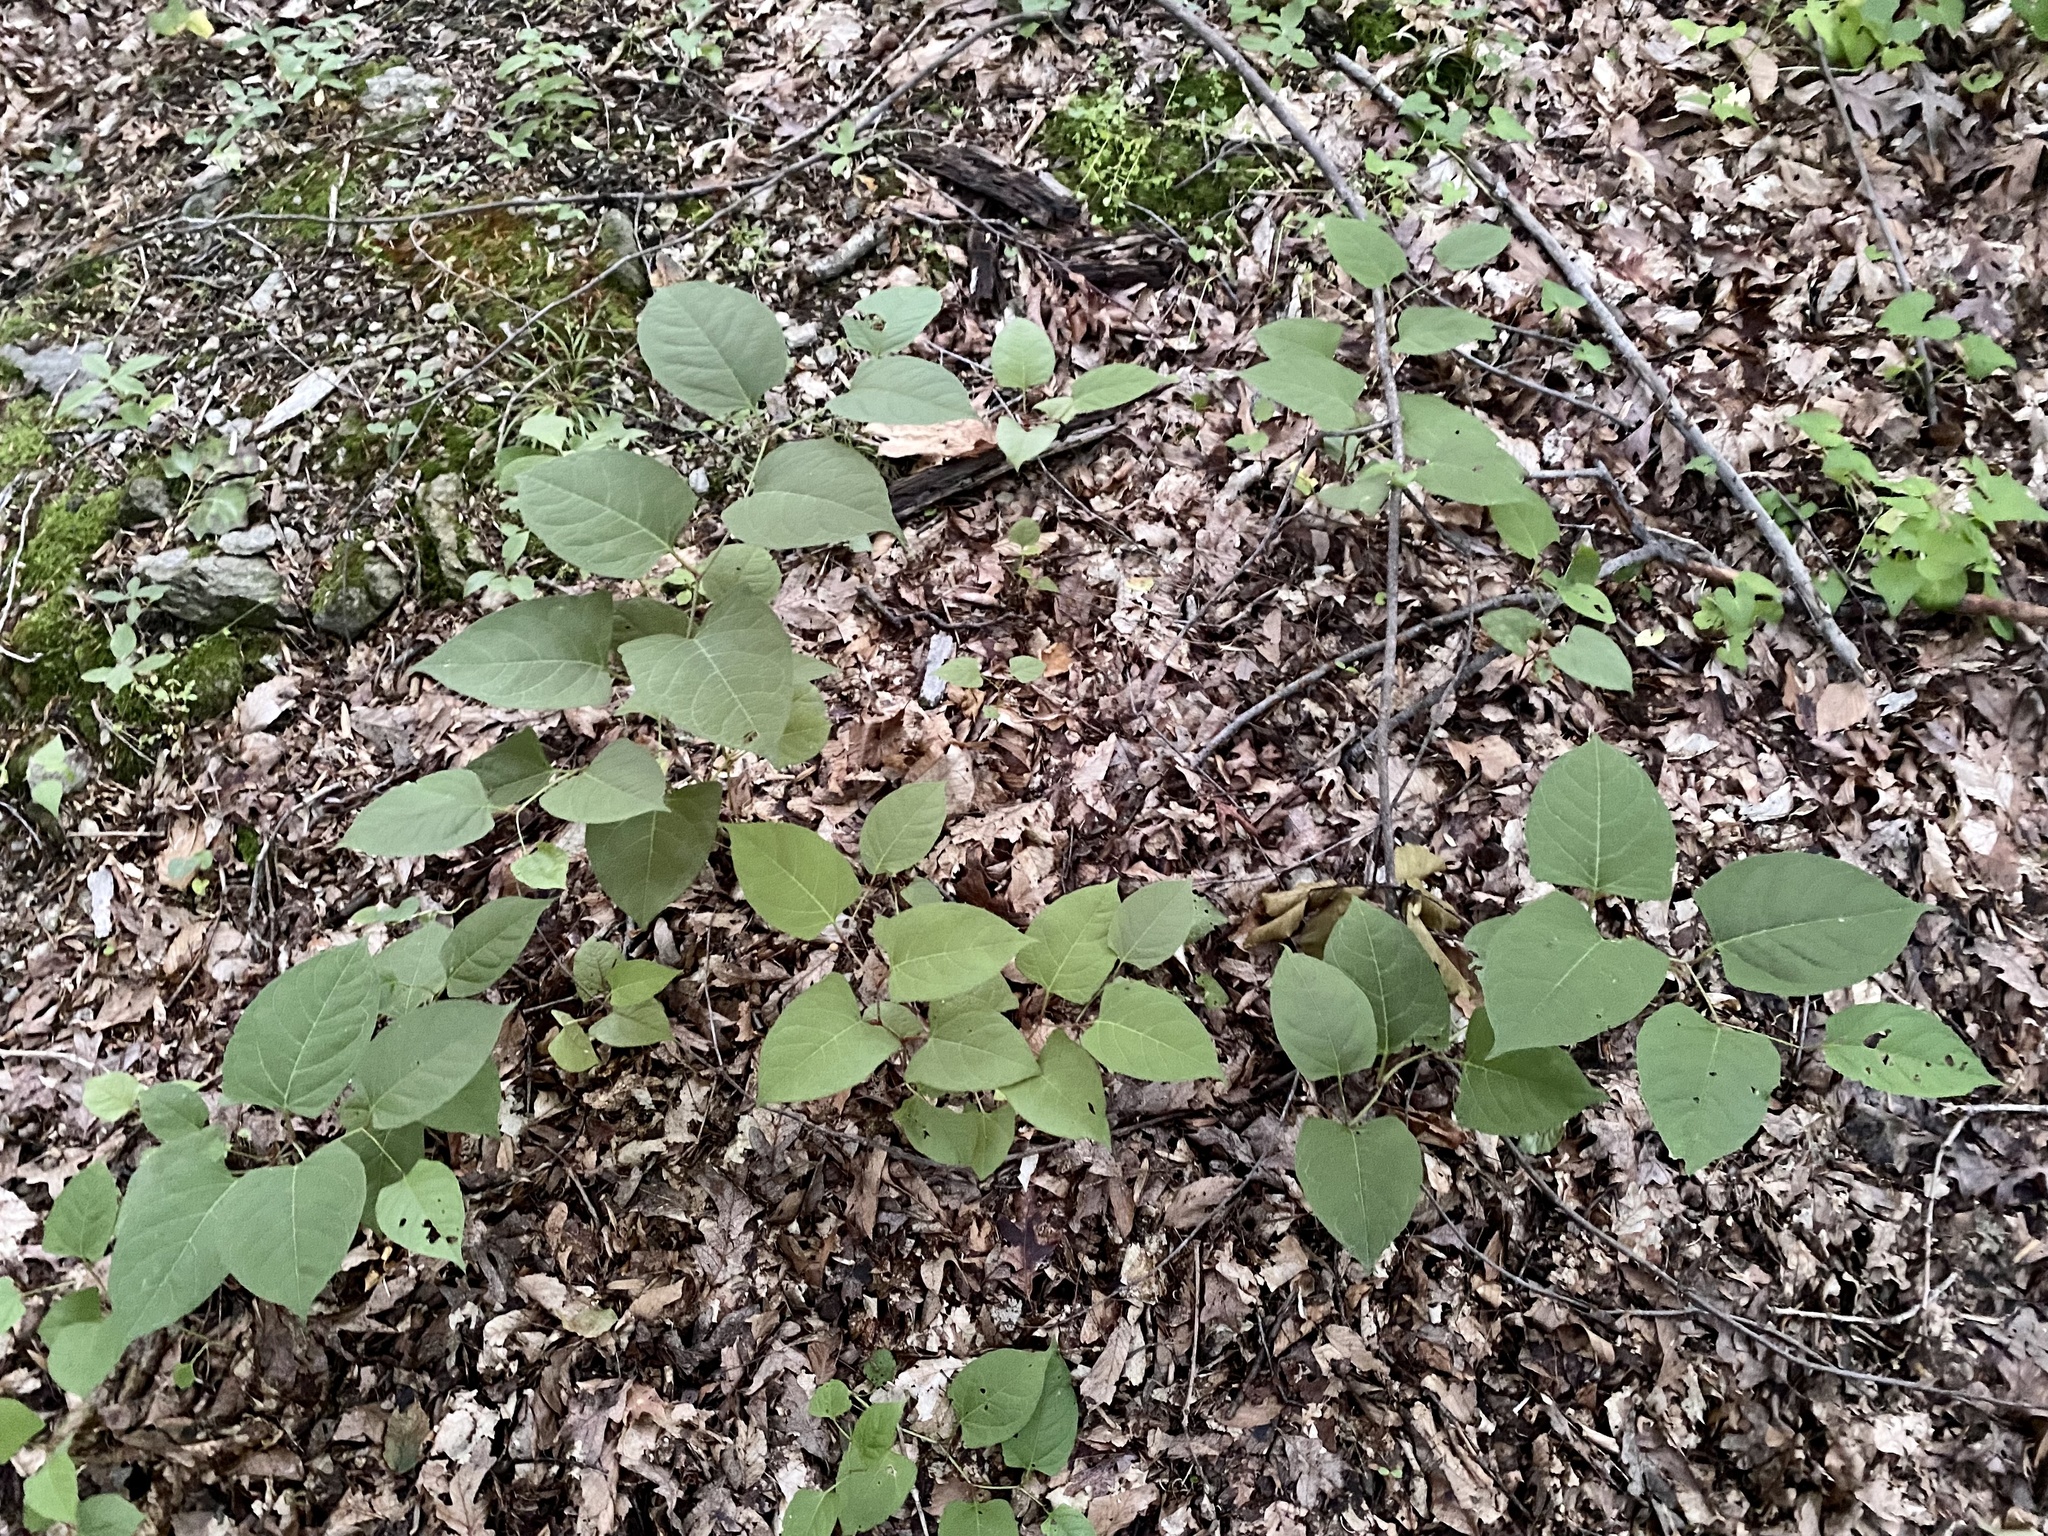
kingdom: Plantae
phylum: Tracheophyta
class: Magnoliopsida
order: Caryophyllales
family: Polygonaceae
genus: Reynoutria
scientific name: Reynoutria japonica
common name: Japanese knotweed
